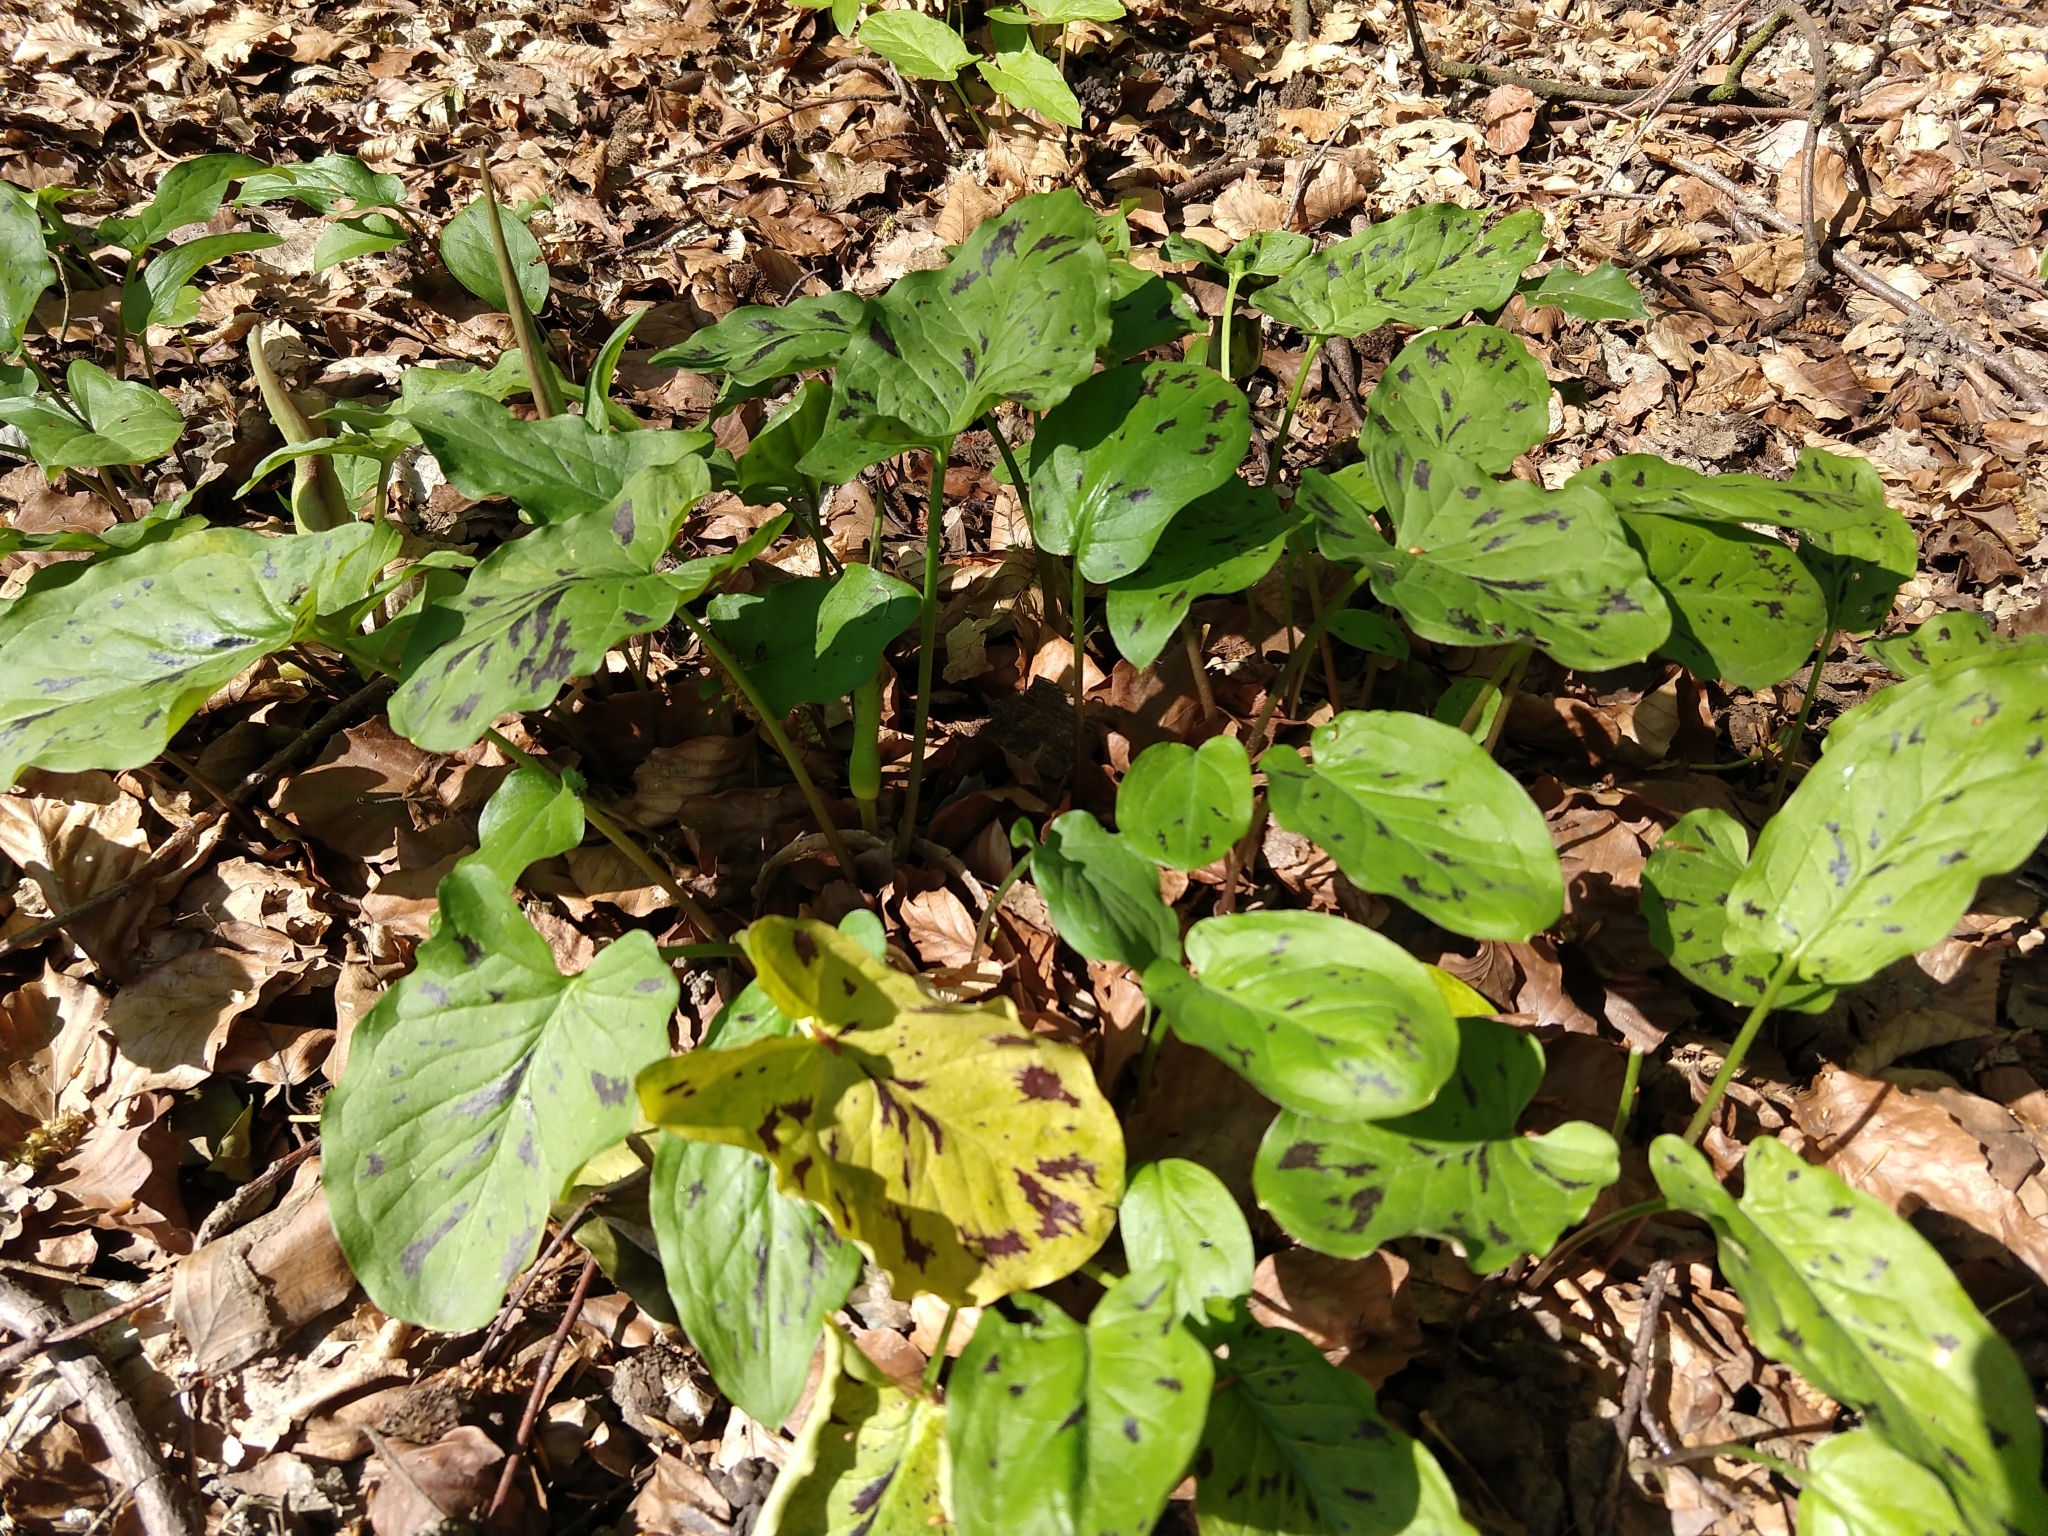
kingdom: Plantae
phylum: Tracheophyta
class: Liliopsida
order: Alismatales
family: Araceae
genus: Arum
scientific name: Arum maculatum
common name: Lords-and-ladies
